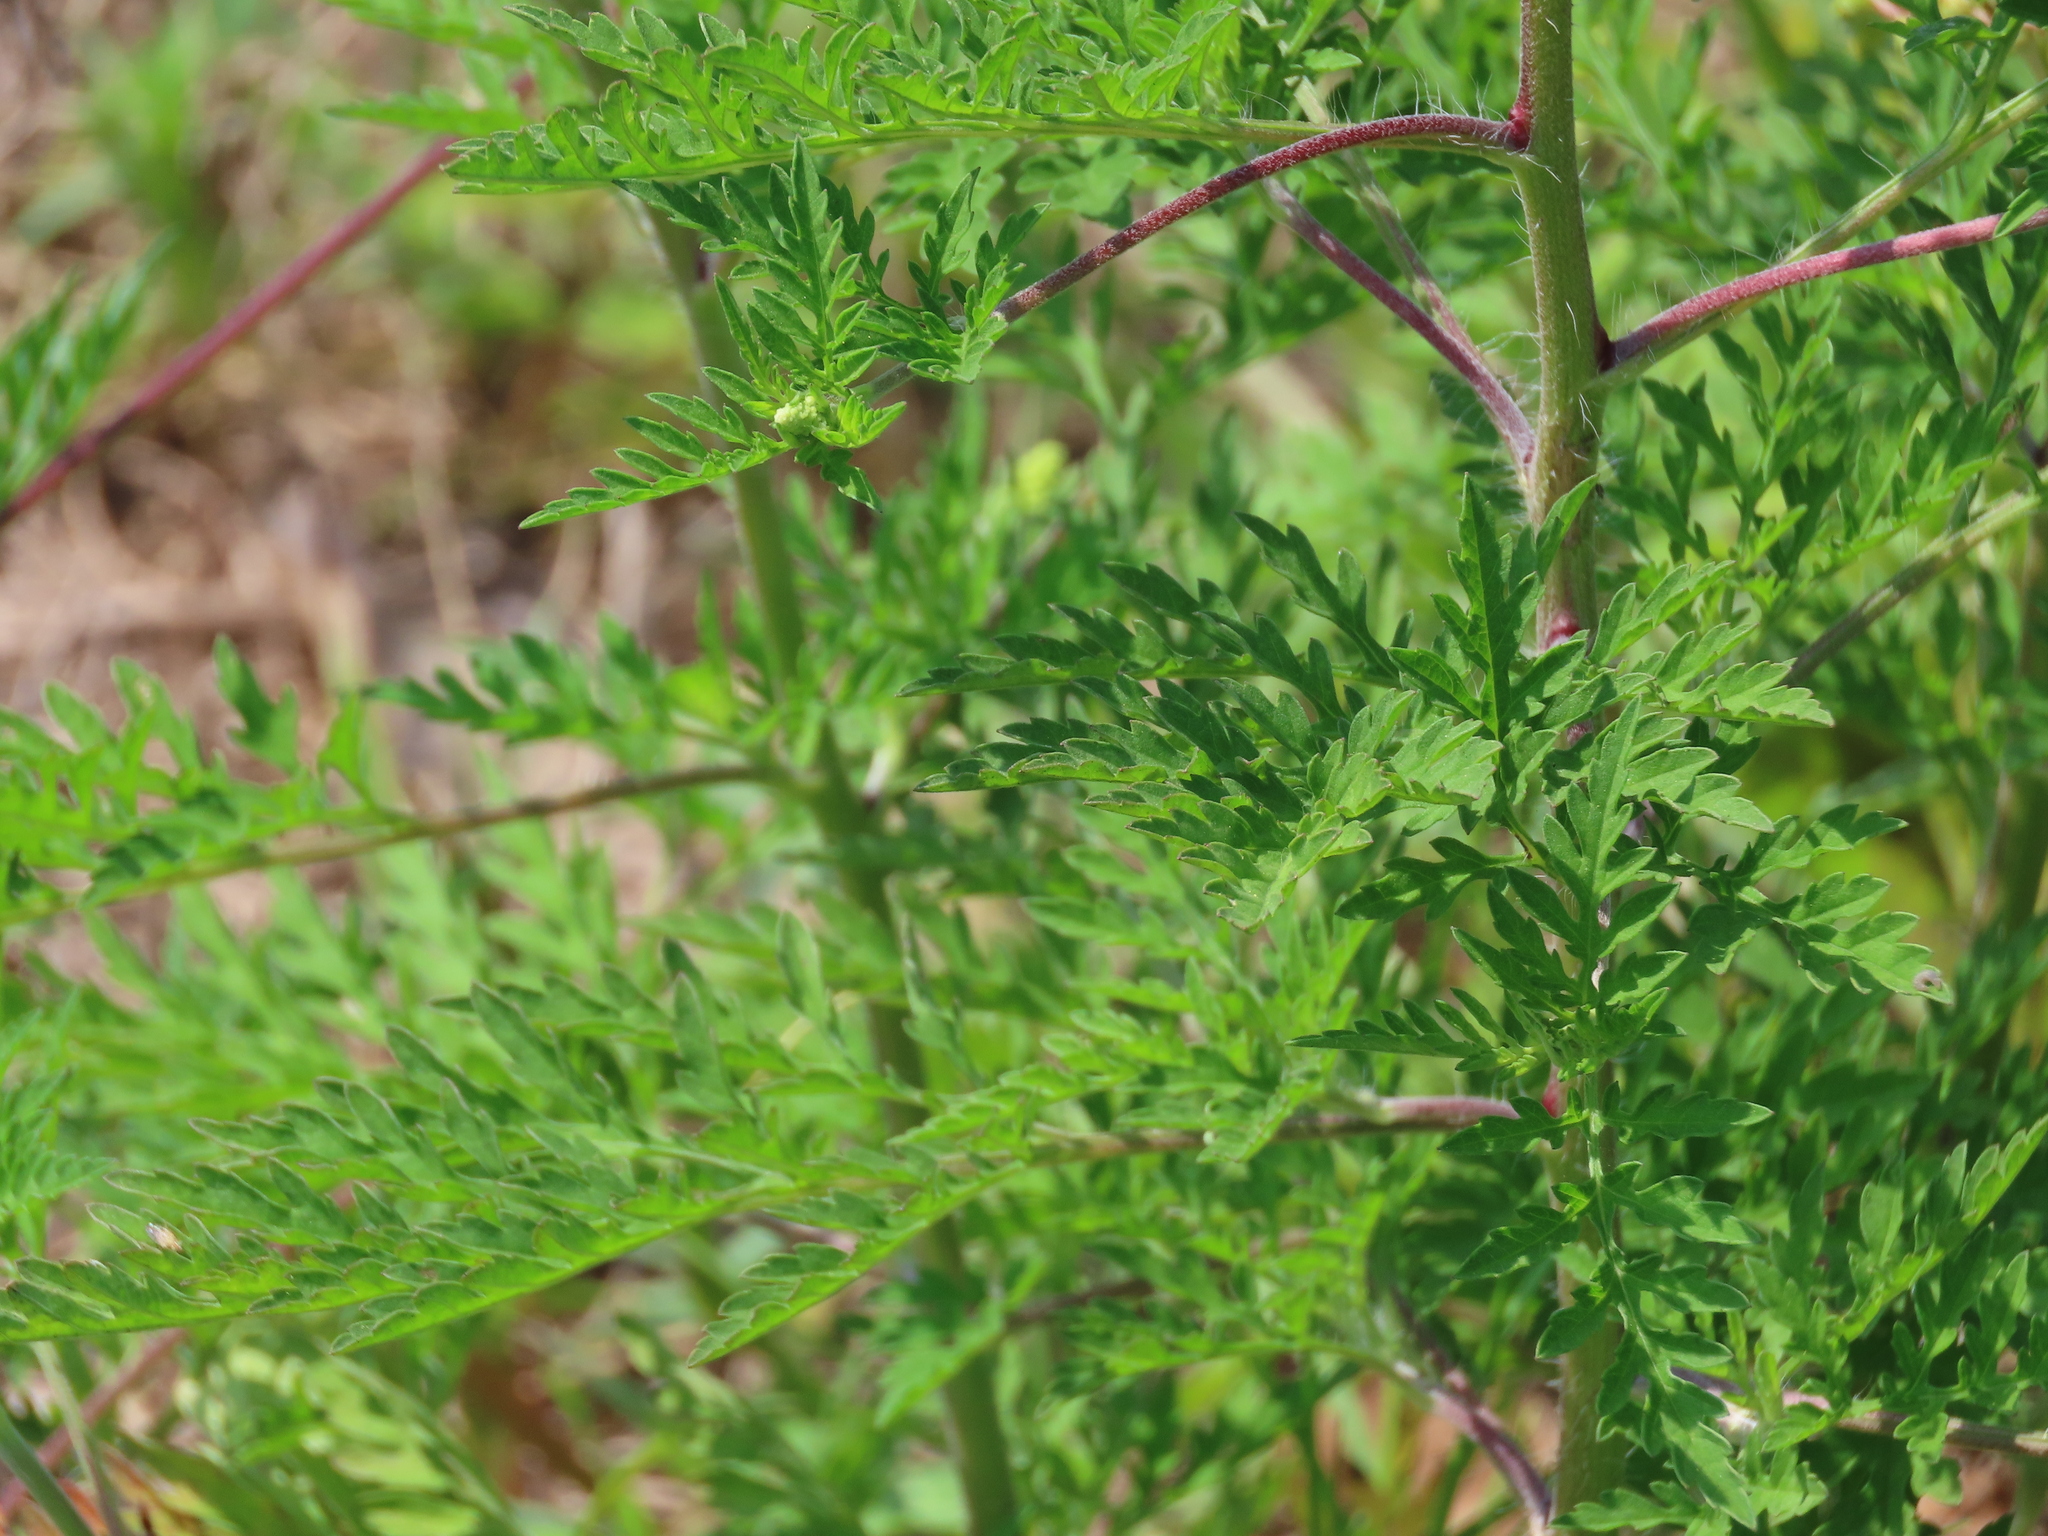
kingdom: Plantae
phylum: Tracheophyta
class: Magnoliopsida
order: Asterales
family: Asteraceae
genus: Ambrosia
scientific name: Ambrosia artemisiifolia
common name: Annual ragweed
